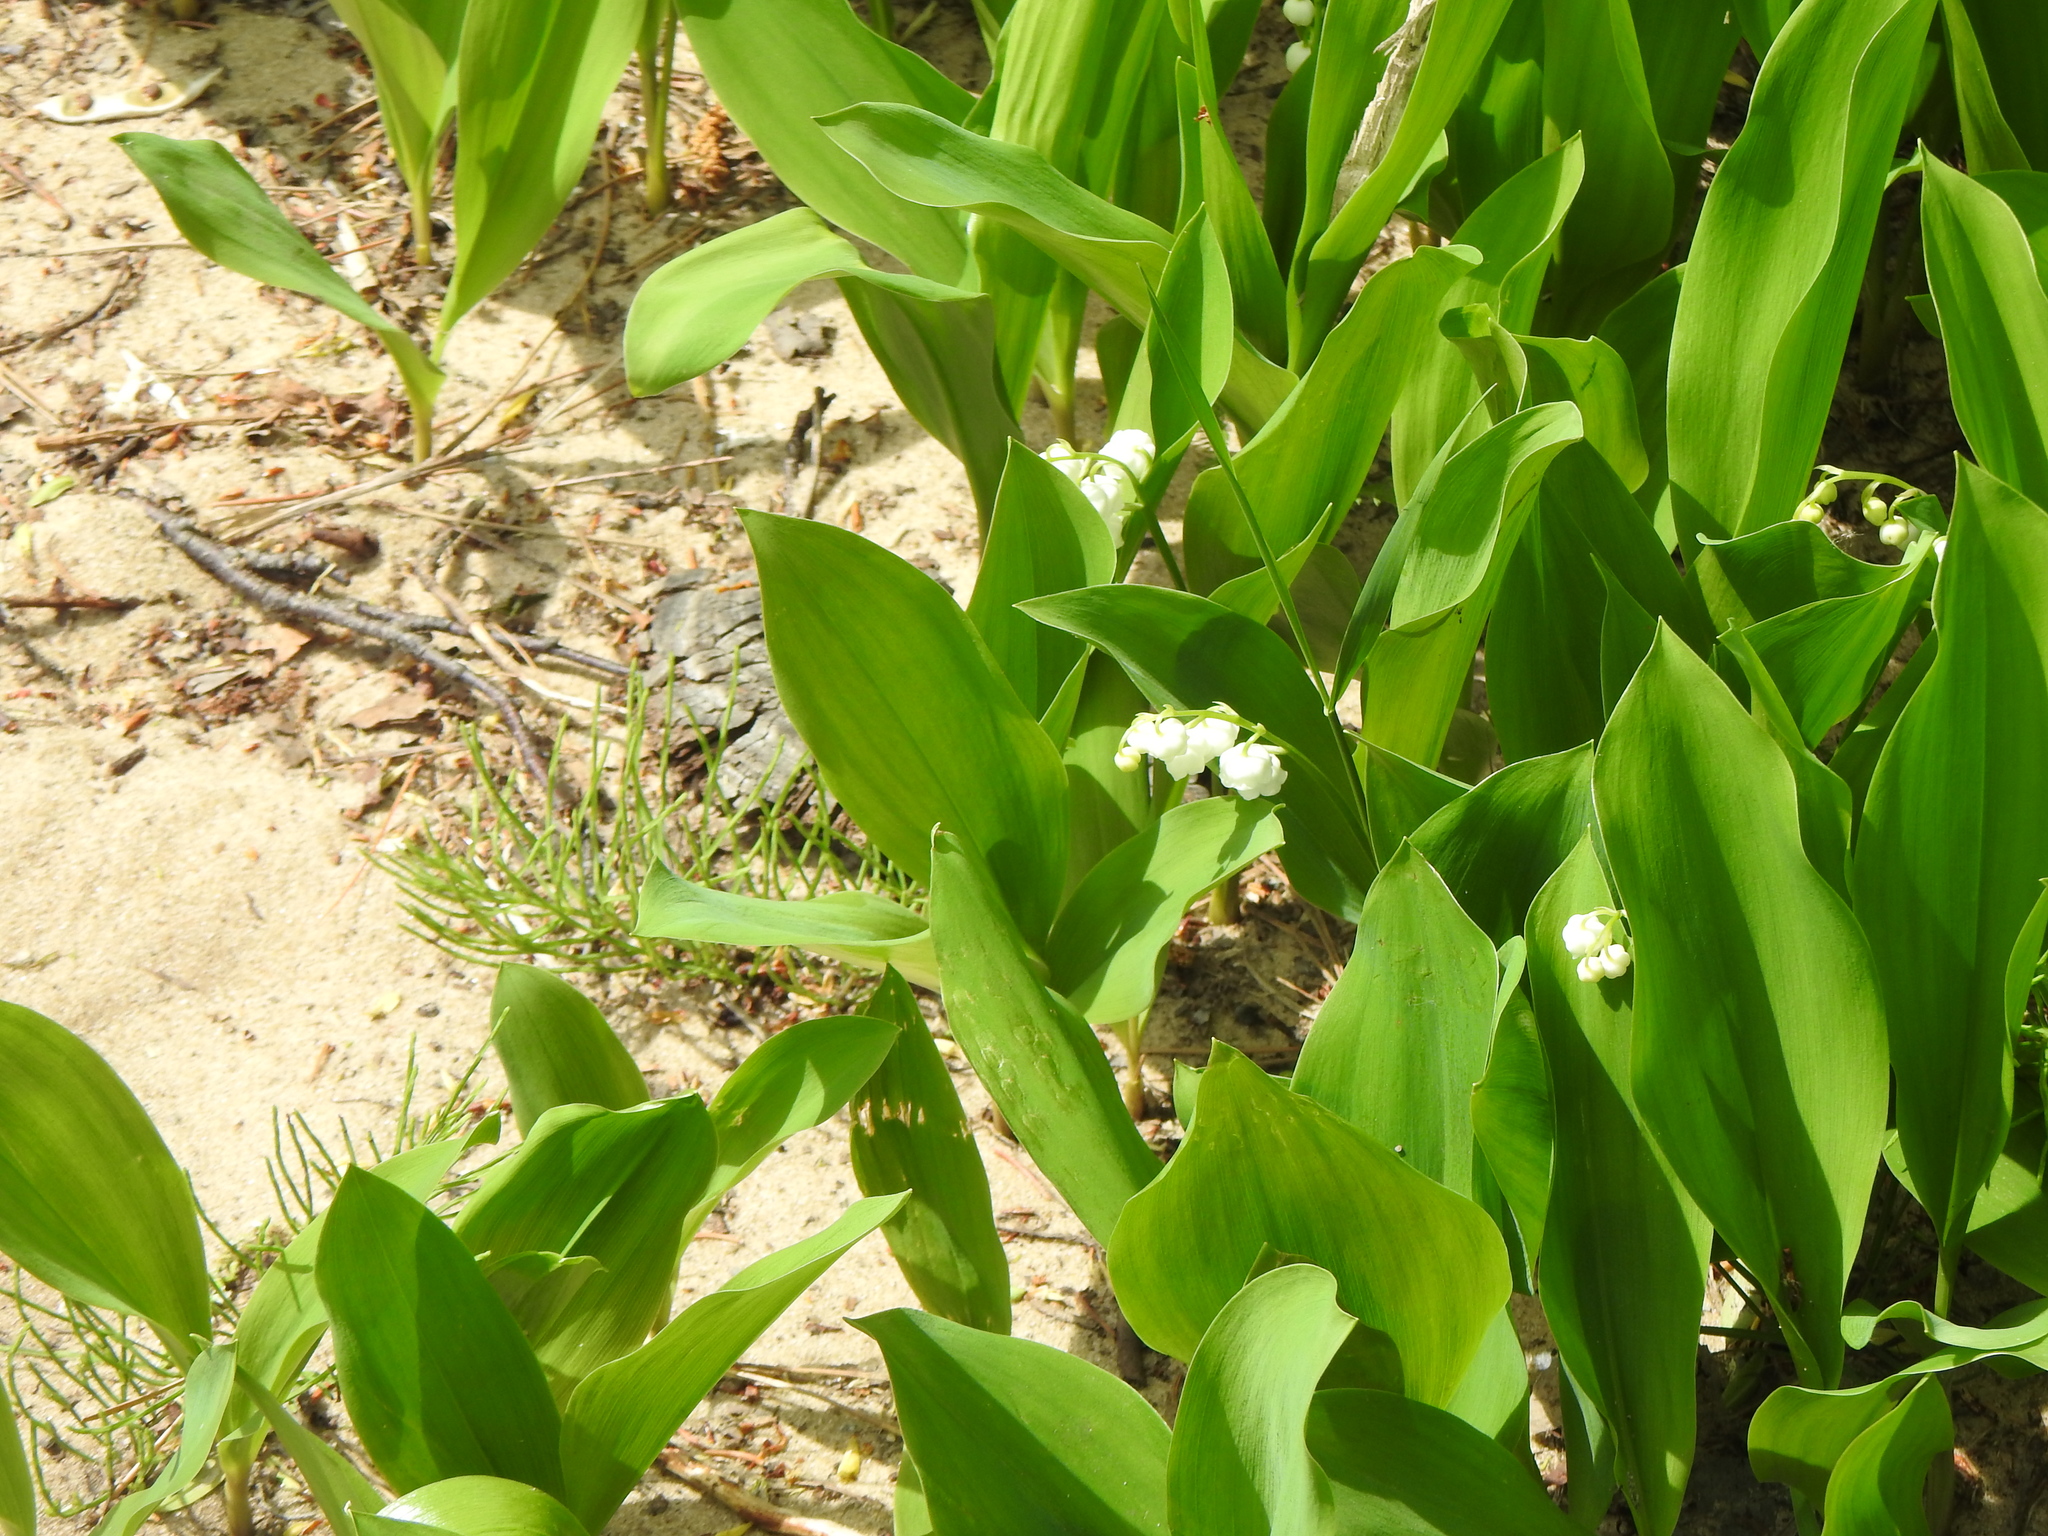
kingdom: Plantae
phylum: Tracheophyta
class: Liliopsida
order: Asparagales
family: Asparagaceae
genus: Convallaria
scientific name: Convallaria majalis
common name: Lily-of-the-valley
